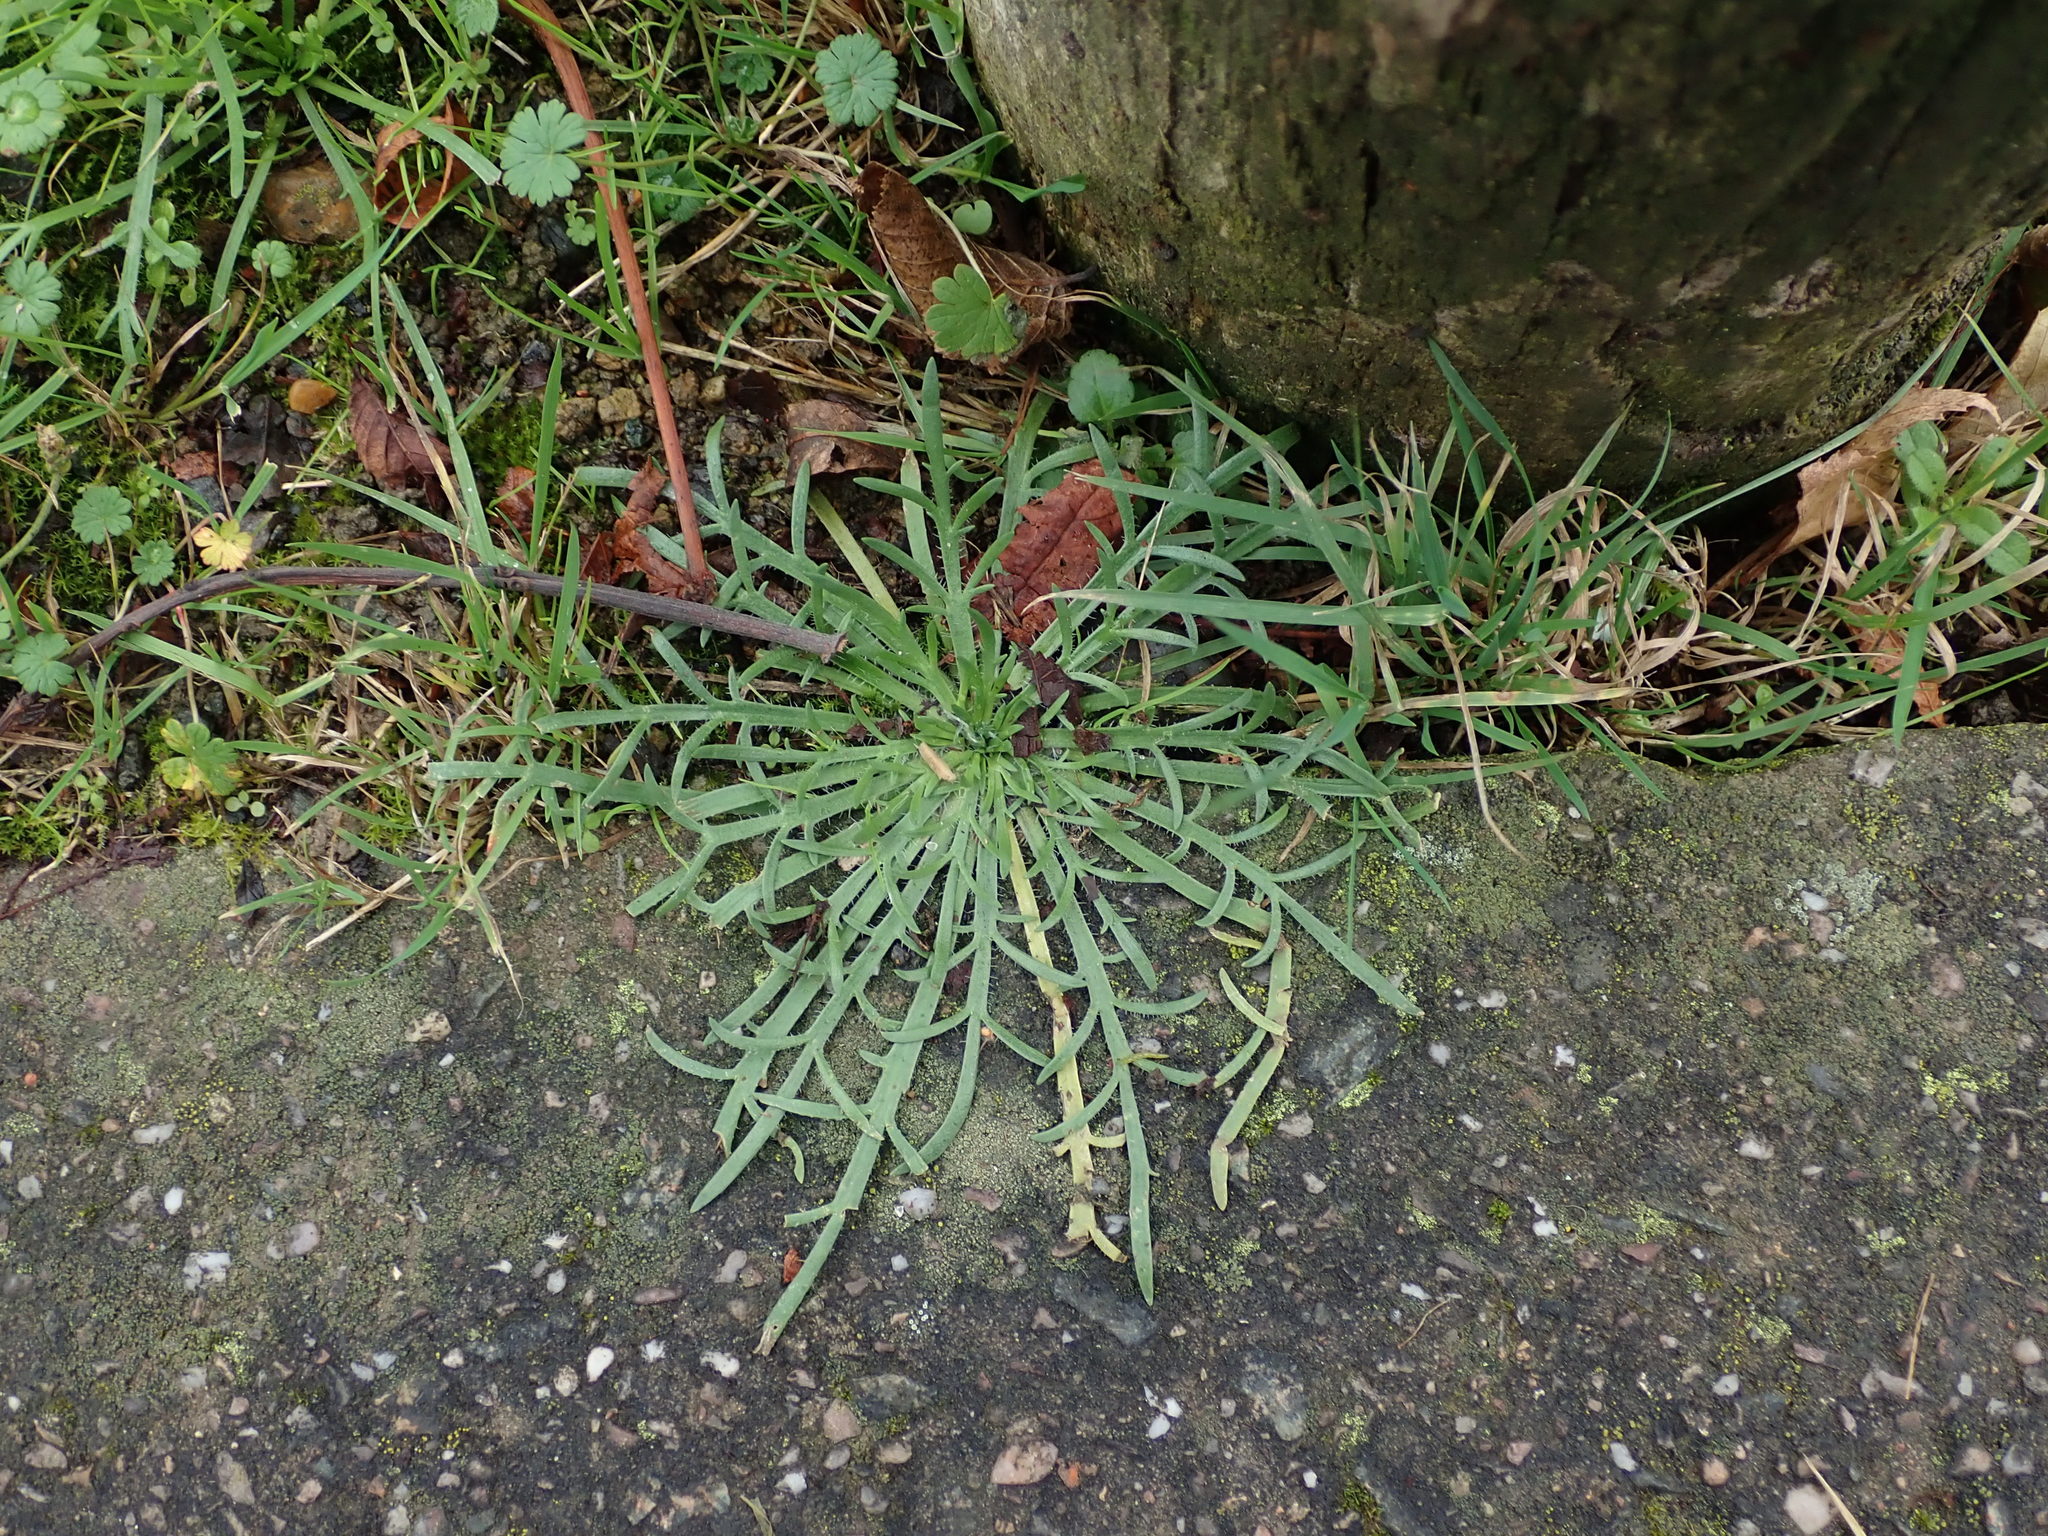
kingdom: Plantae
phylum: Tracheophyta
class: Magnoliopsida
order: Lamiales
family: Plantaginaceae
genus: Plantago
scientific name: Plantago coronopus
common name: Buck's-horn plantain
